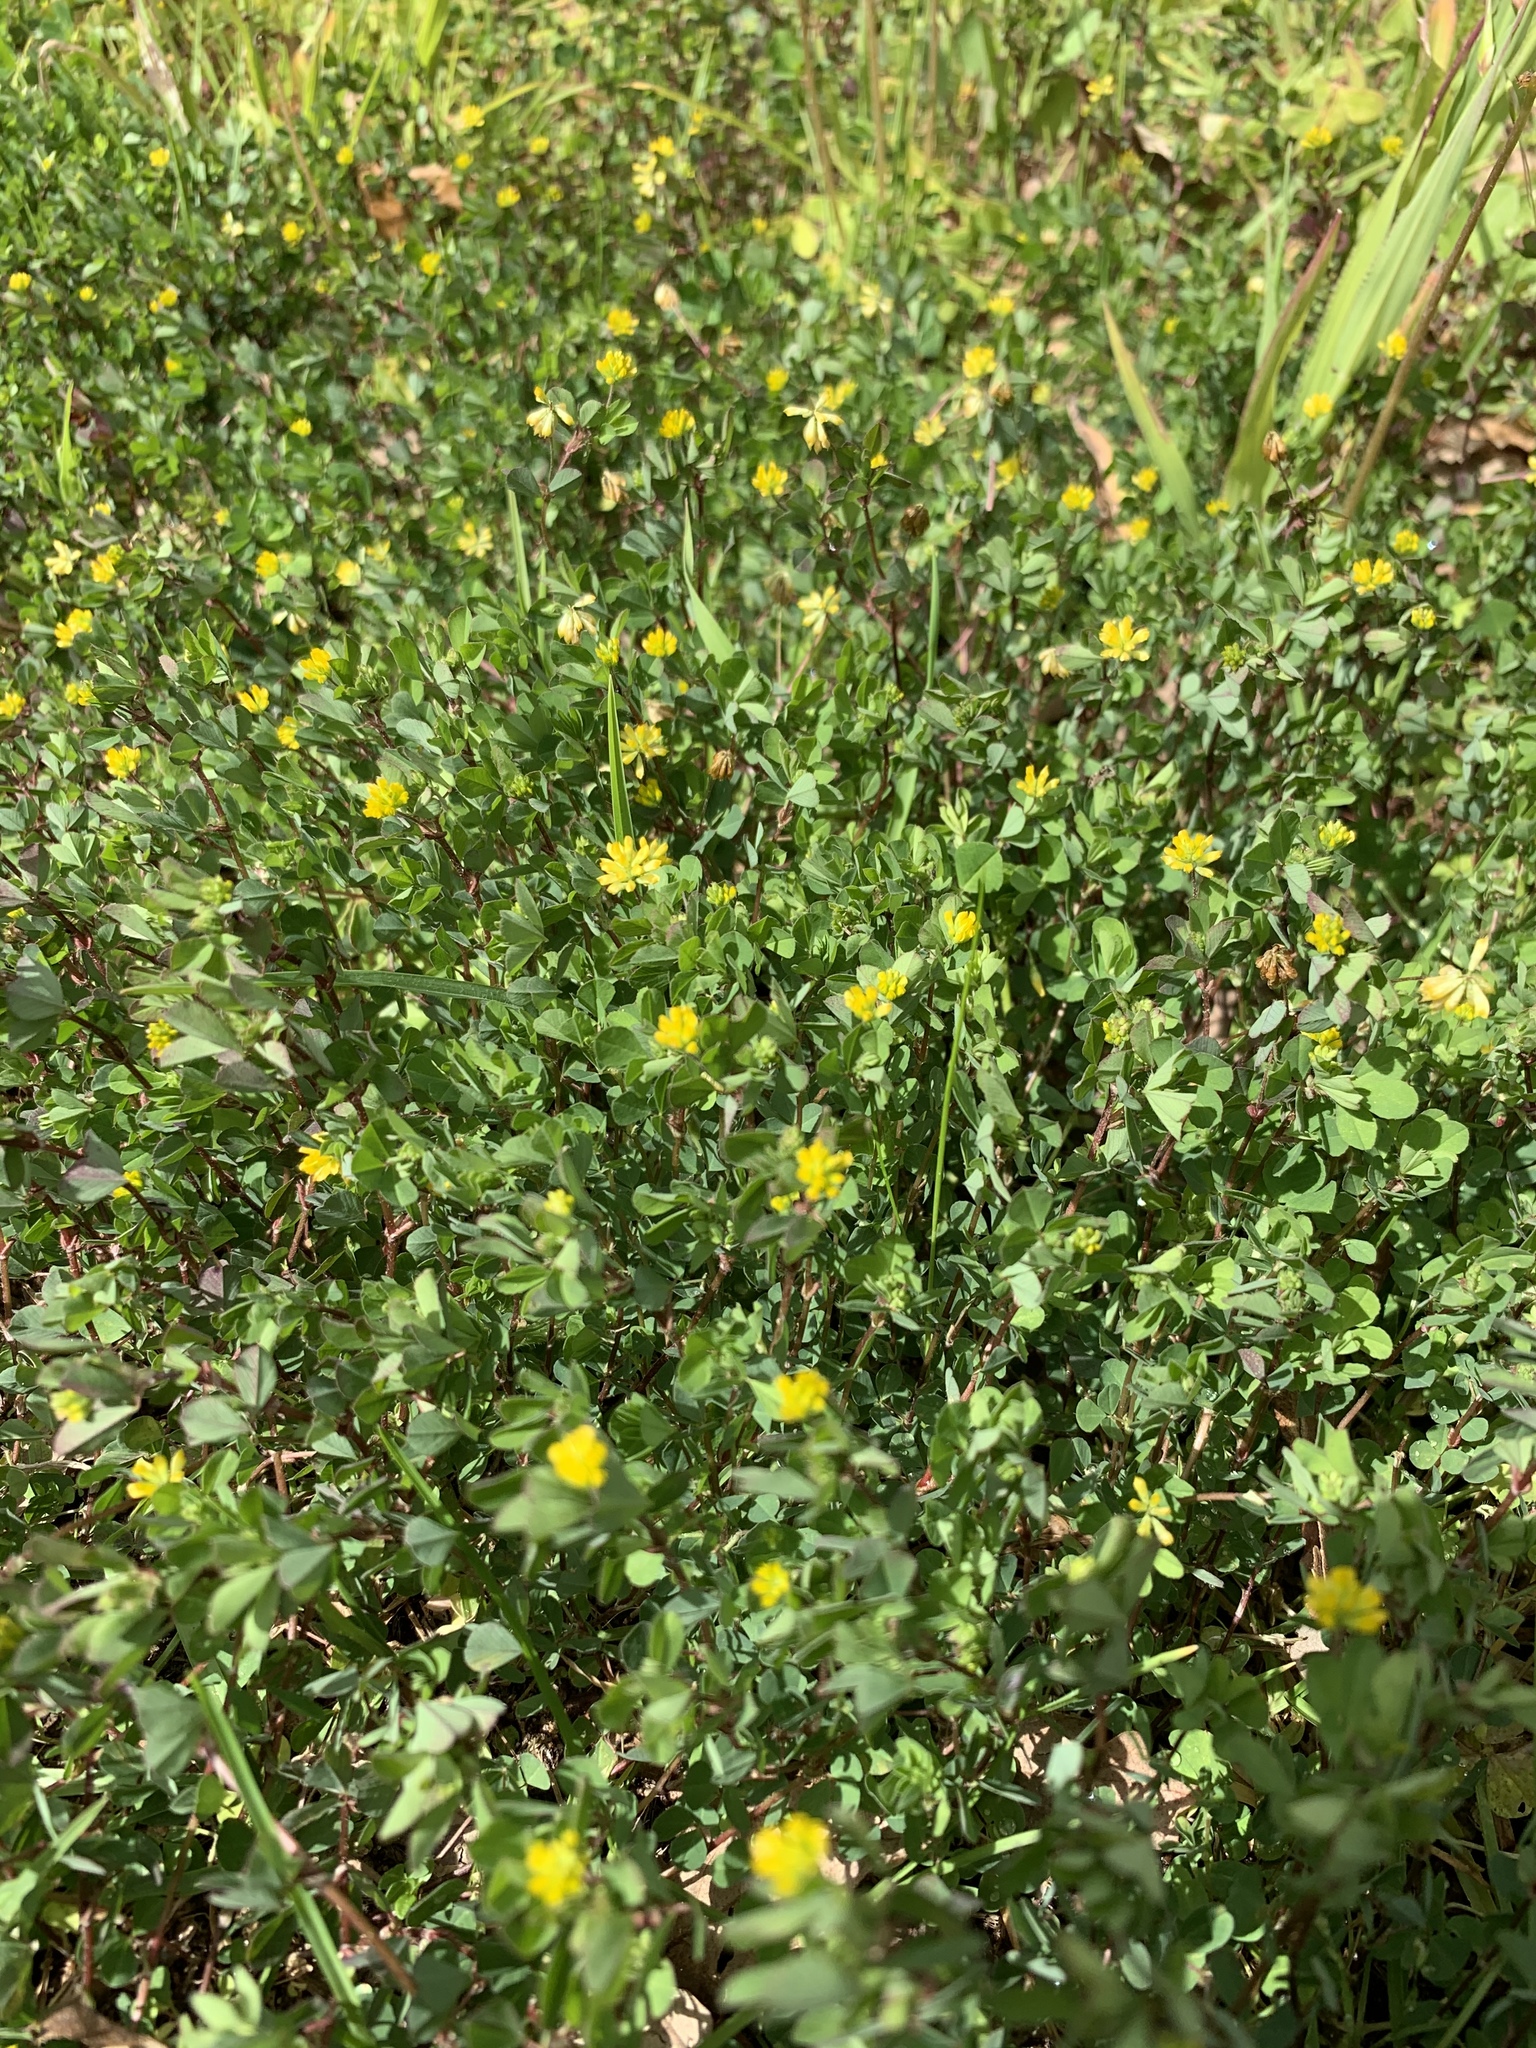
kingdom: Plantae
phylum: Tracheophyta
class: Magnoliopsida
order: Fabales
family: Fabaceae
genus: Trifolium
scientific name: Trifolium dubium
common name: Suckling clover
